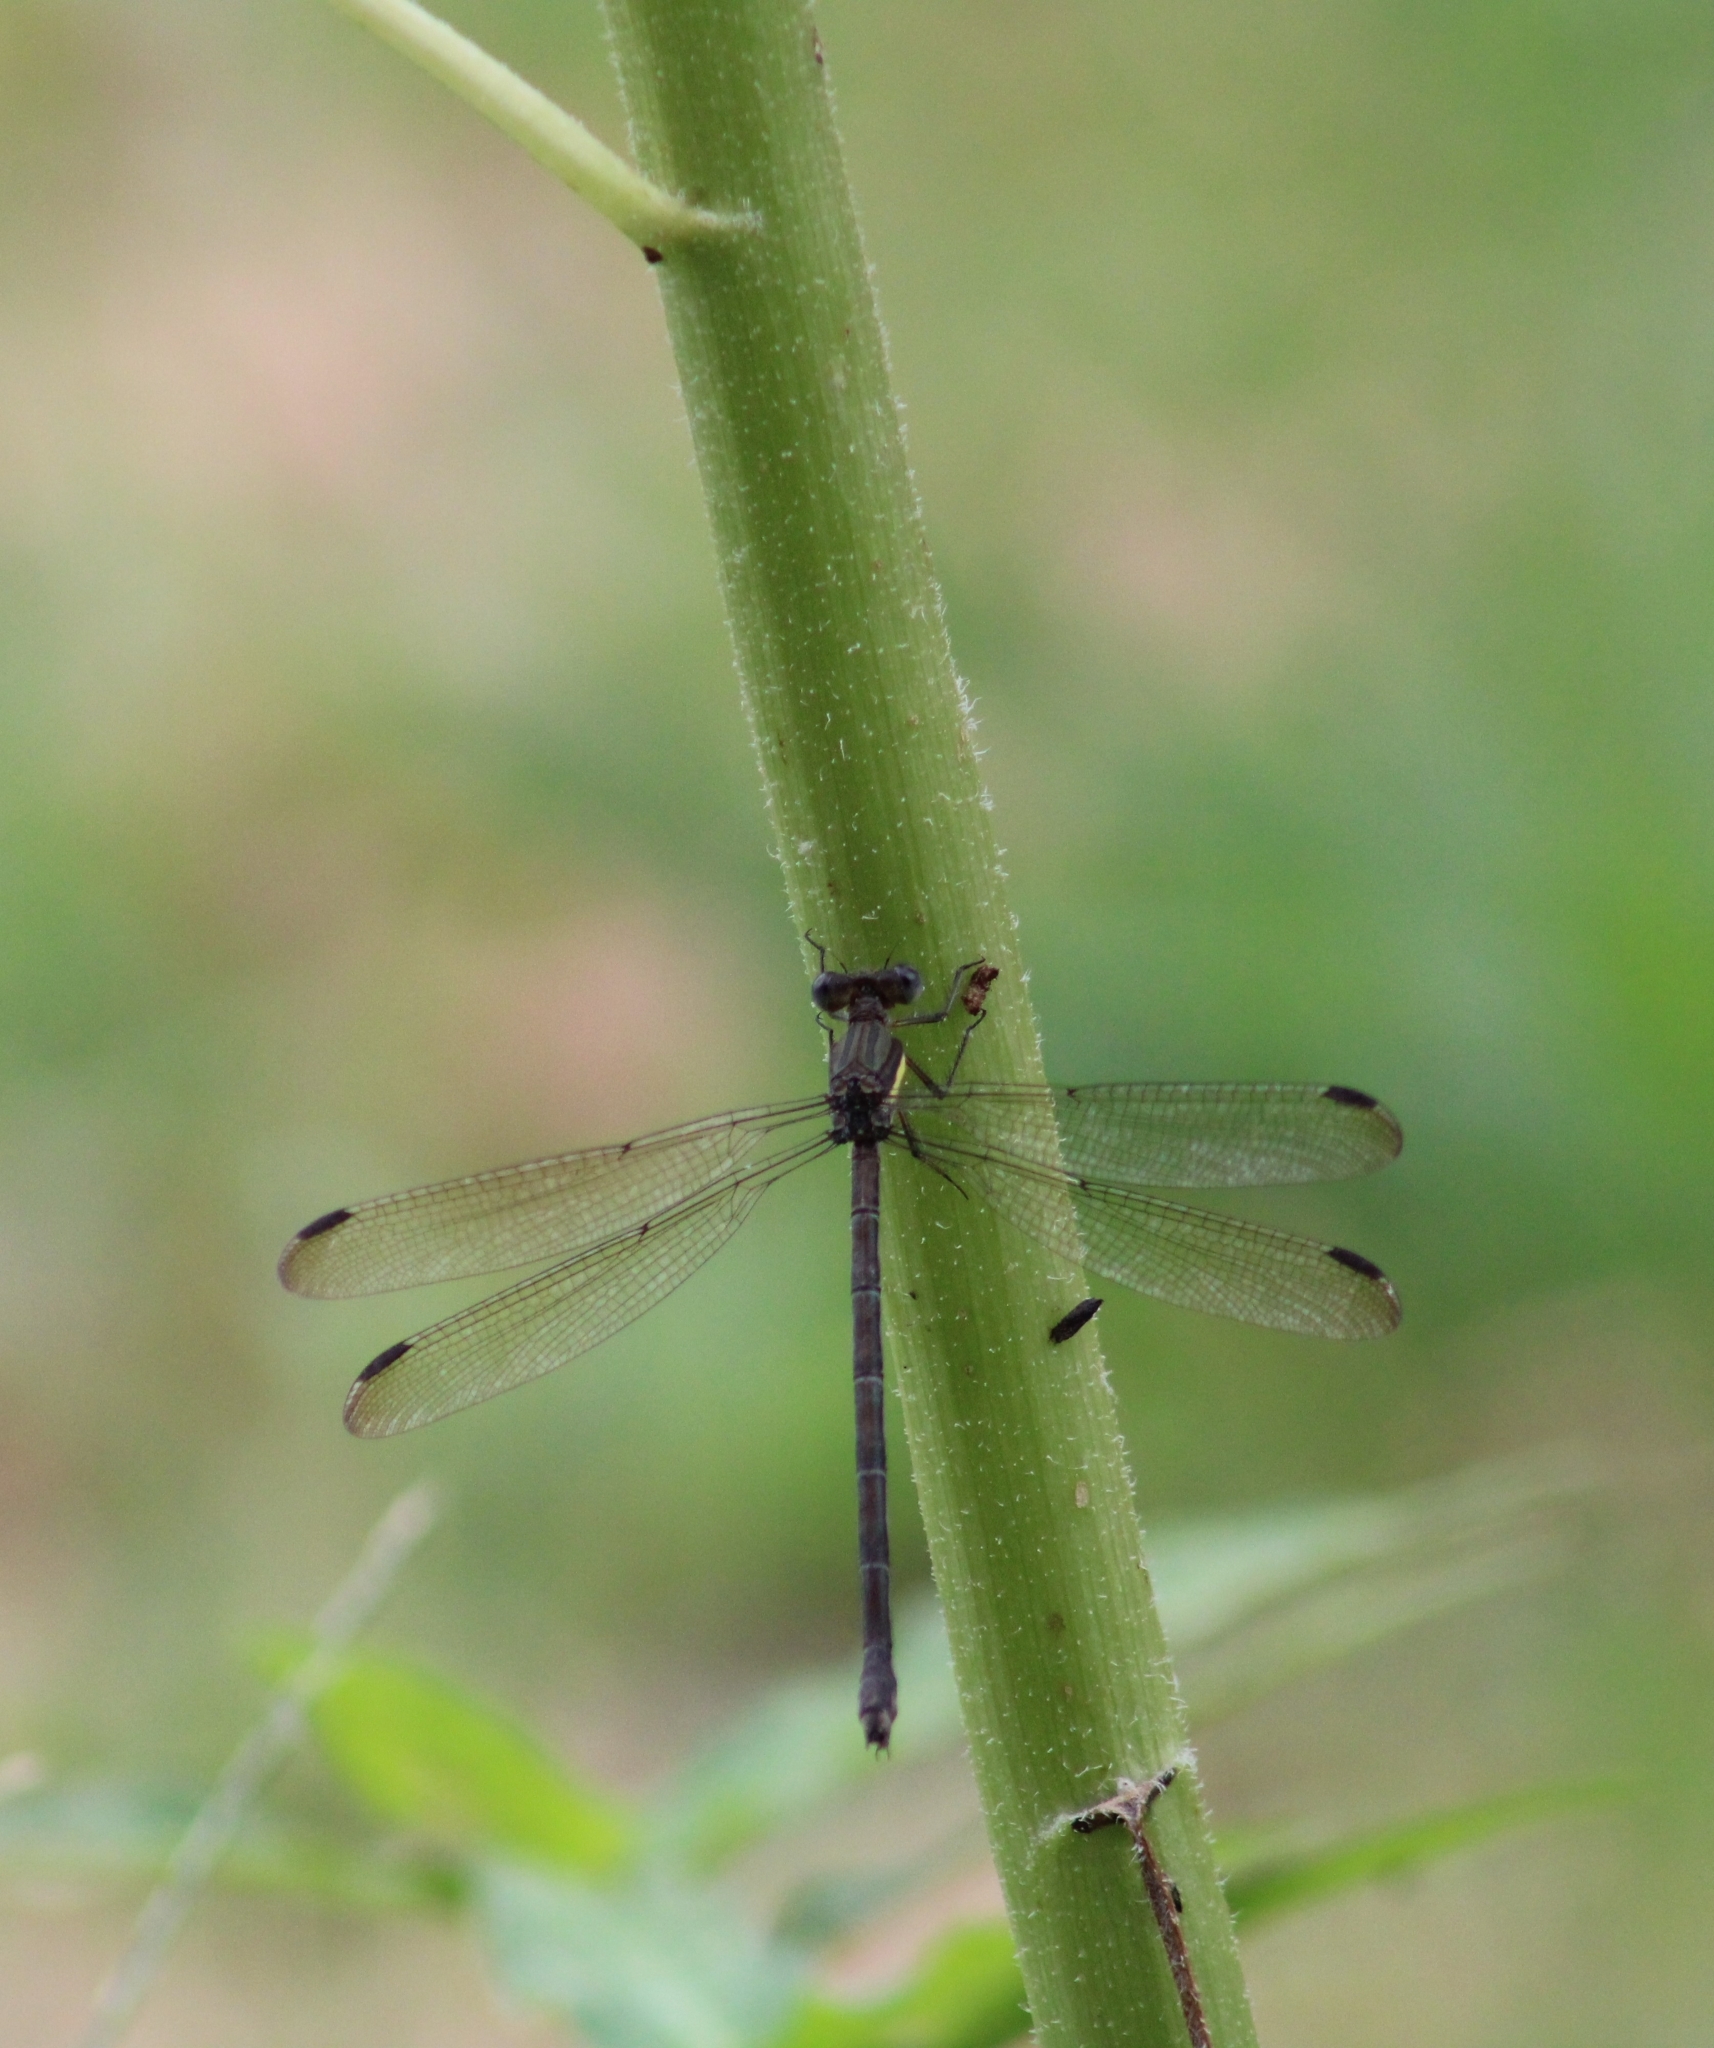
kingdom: Animalia
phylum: Arthropoda
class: Insecta
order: Odonata
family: Lestidae
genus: Archilestes
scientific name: Archilestes grandis
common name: Great spreadwing
